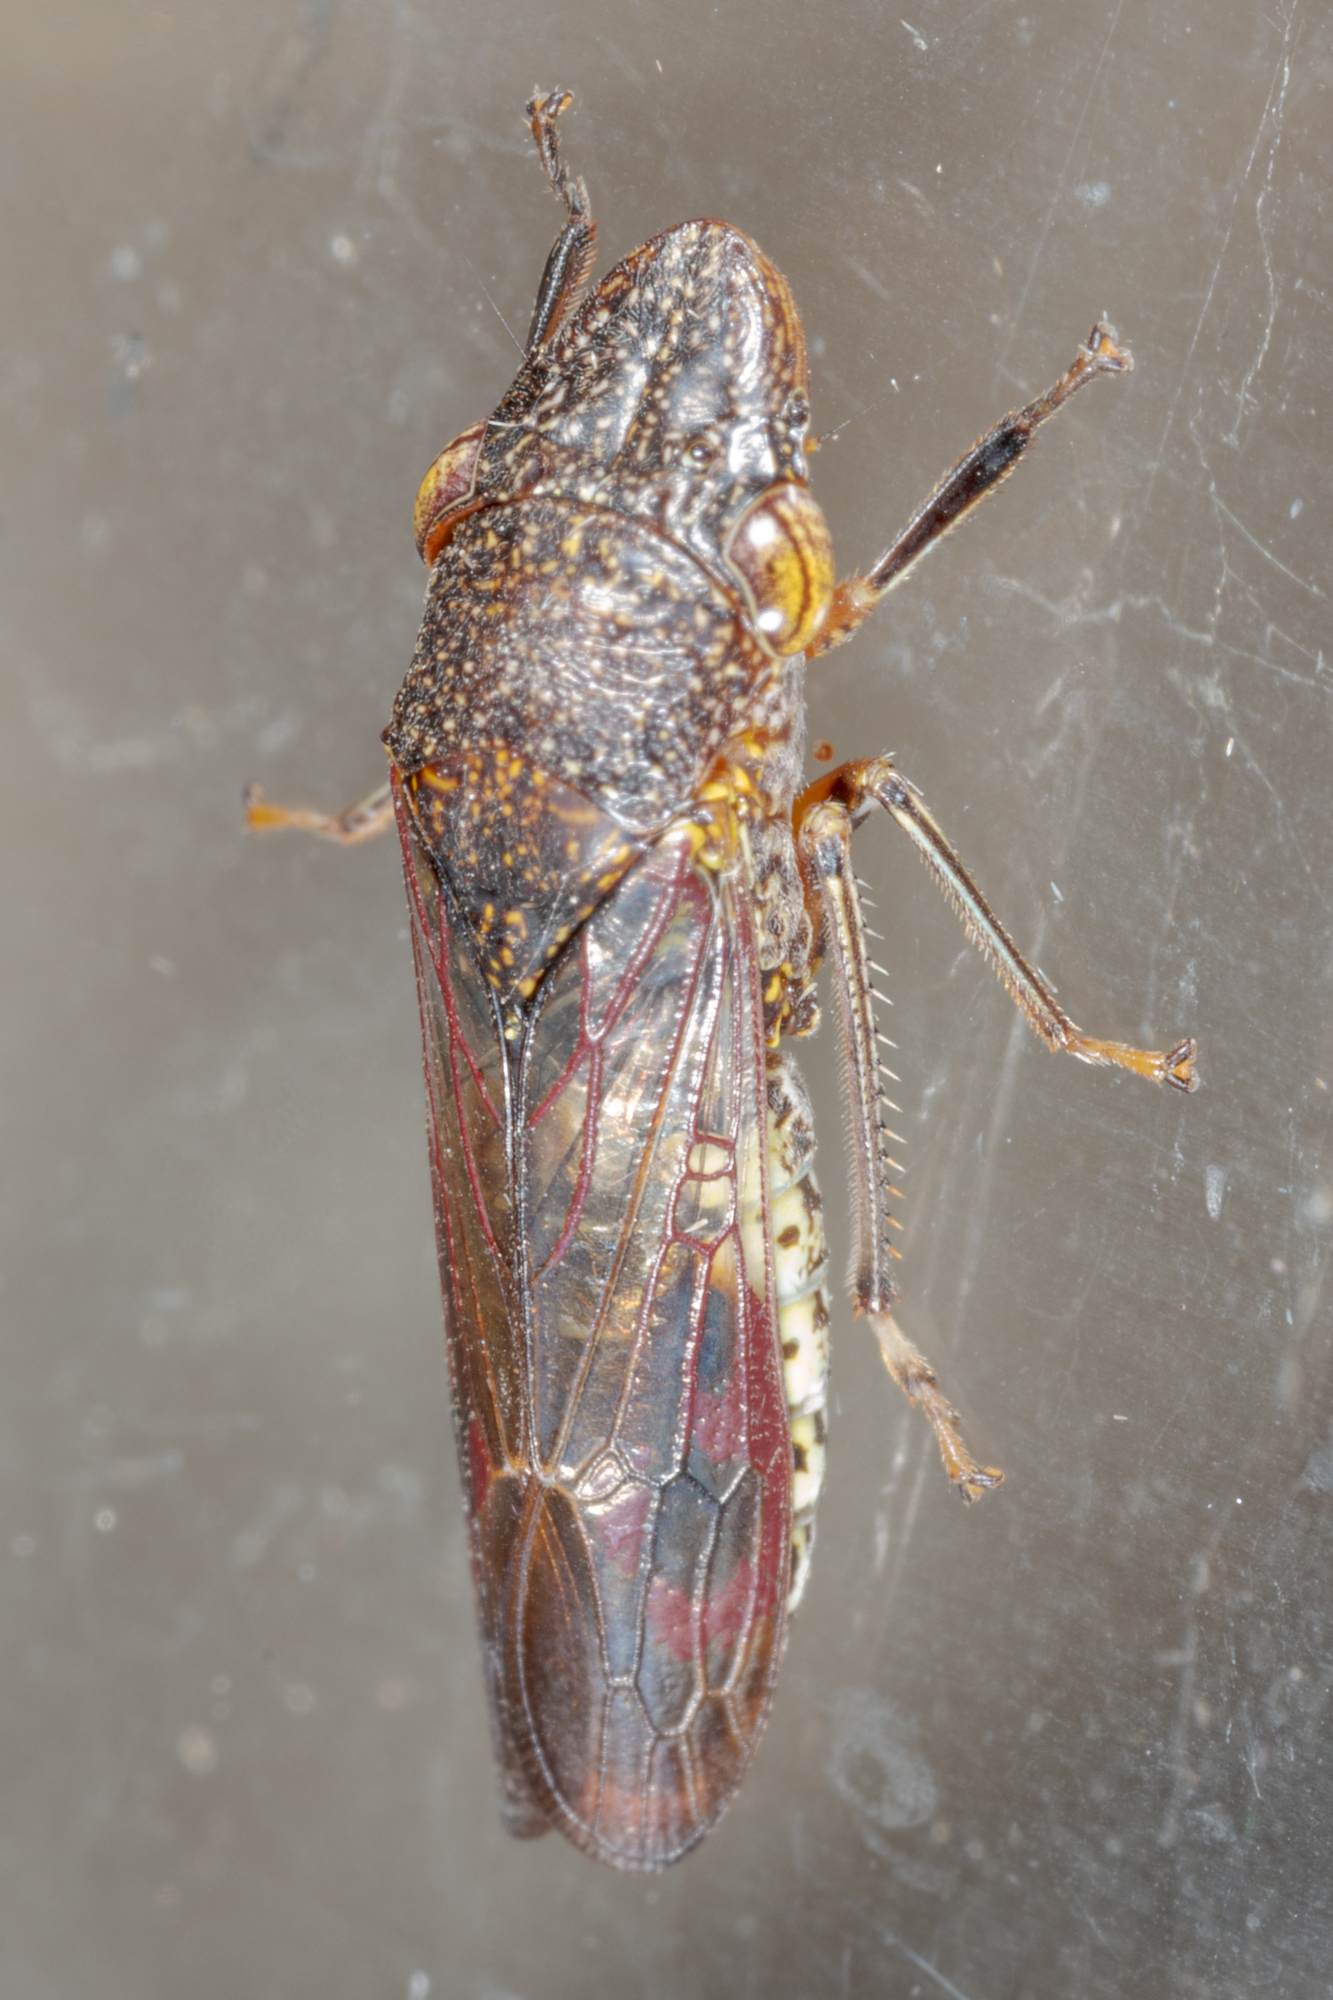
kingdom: Animalia
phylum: Arthropoda
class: Insecta
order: Hemiptera
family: Cicadellidae
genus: Homalodisca
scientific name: Homalodisca vitripennis
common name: Glassy-winged sharpshooter
